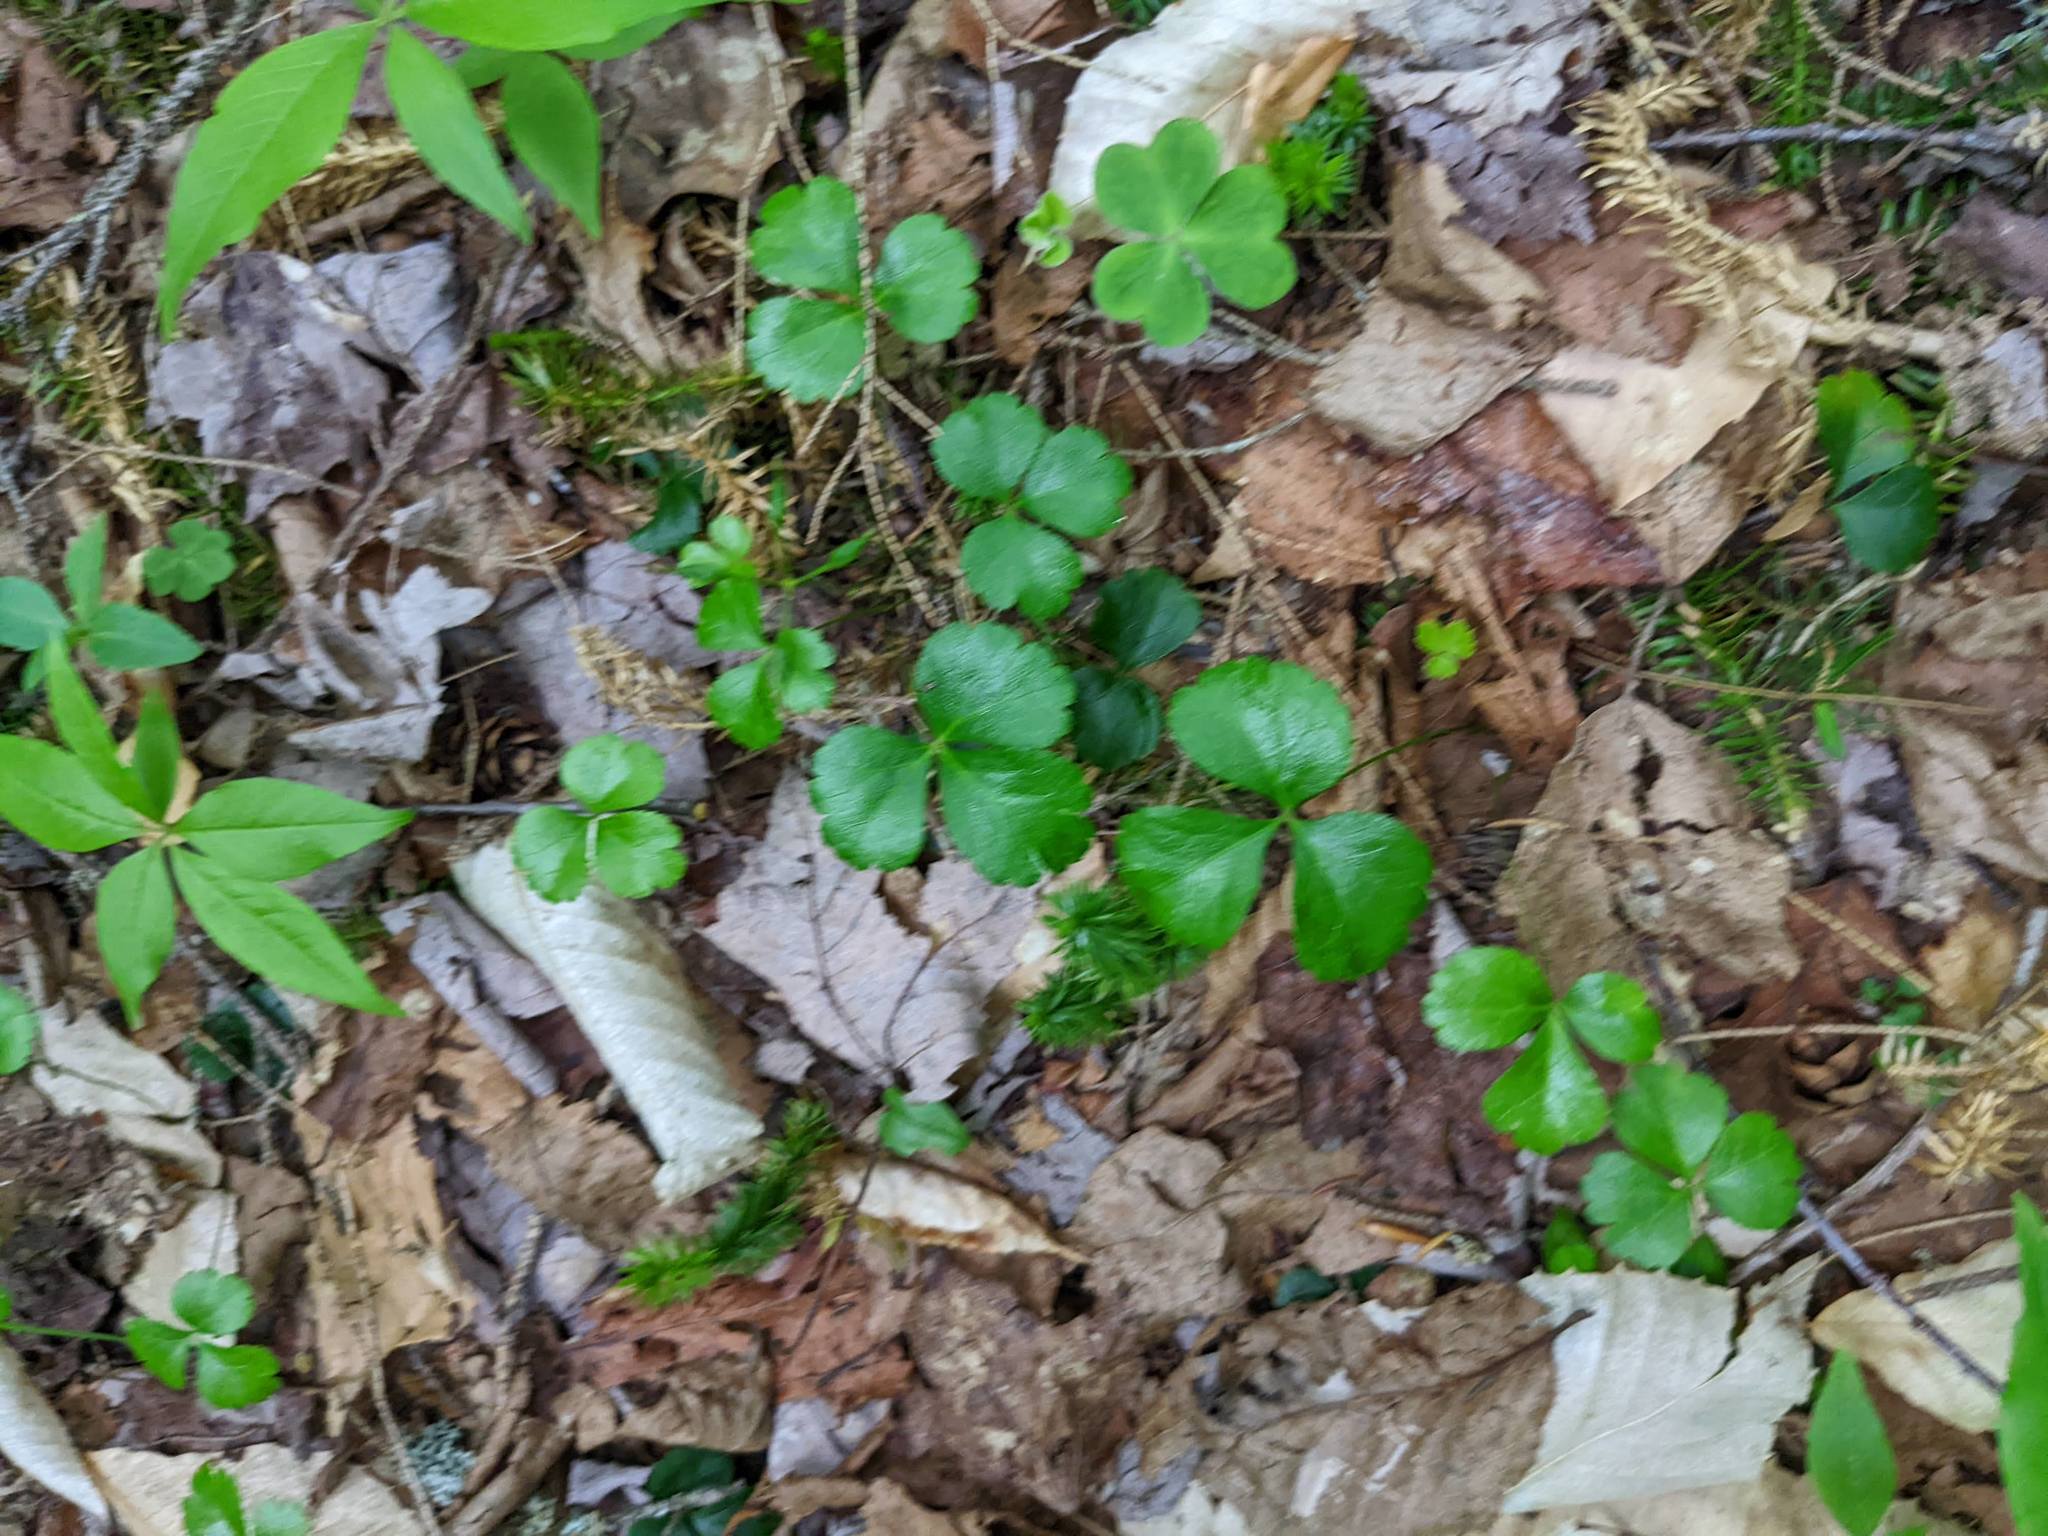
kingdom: Plantae
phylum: Tracheophyta
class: Magnoliopsida
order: Ranunculales
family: Ranunculaceae
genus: Coptis
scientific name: Coptis trifolia
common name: Canker-root
